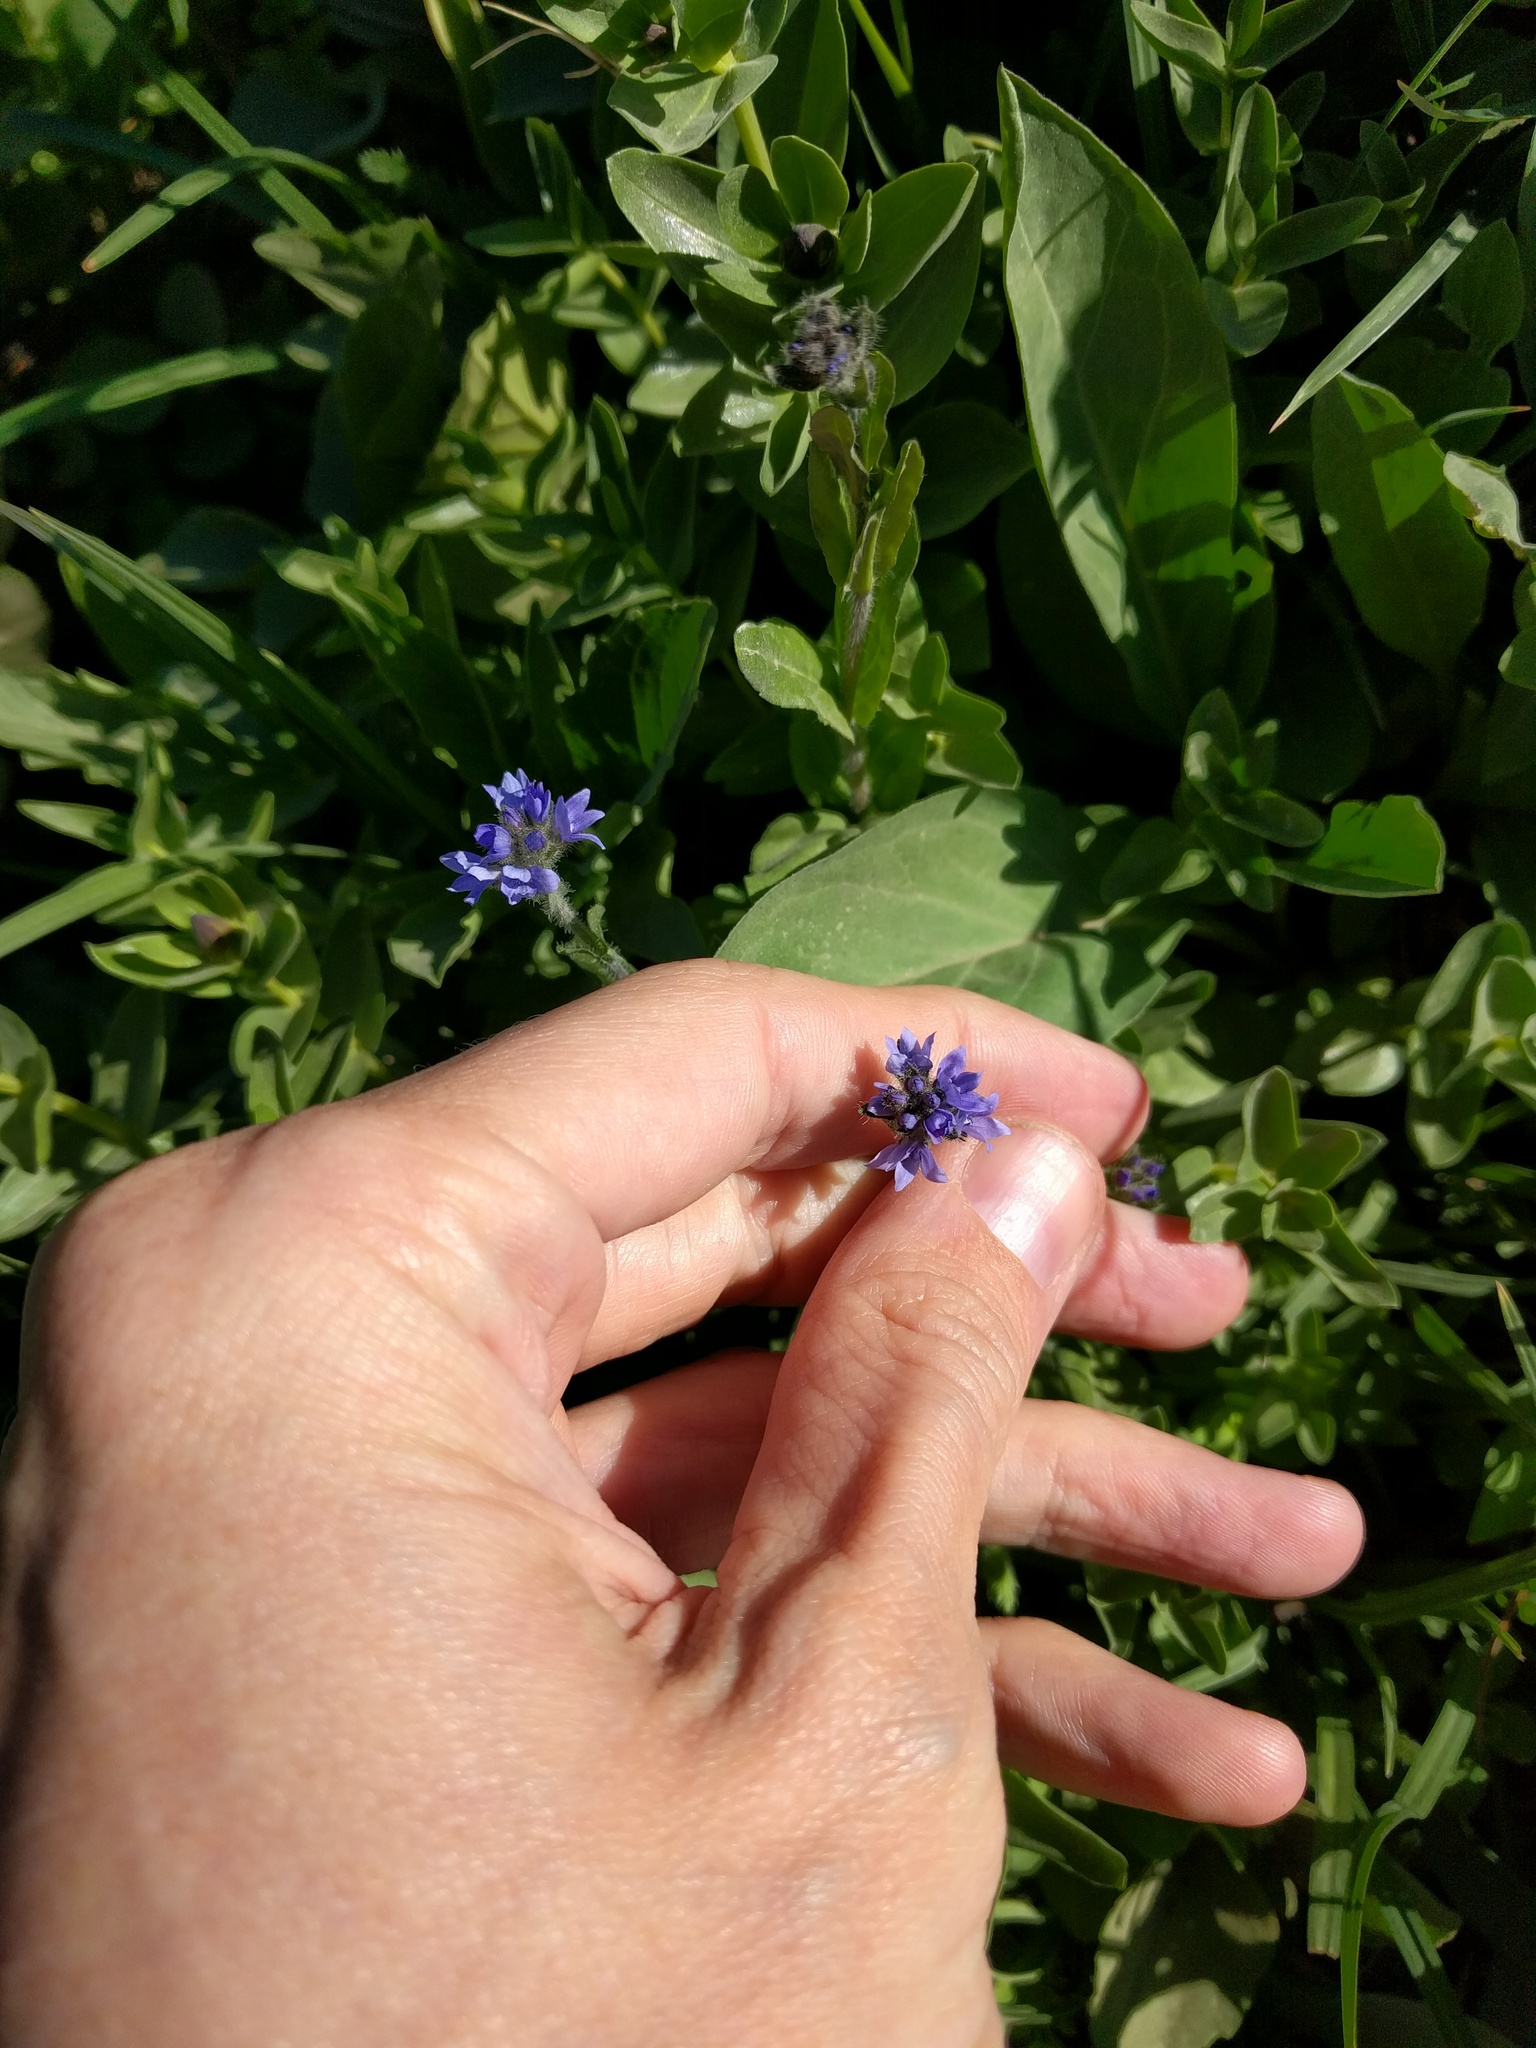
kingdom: Plantae
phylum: Tracheophyta
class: Magnoliopsida
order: Lamiales
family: Plantaginaceae
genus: Veronica
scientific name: Veronica wormskjoldii
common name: American alpine speedwell
